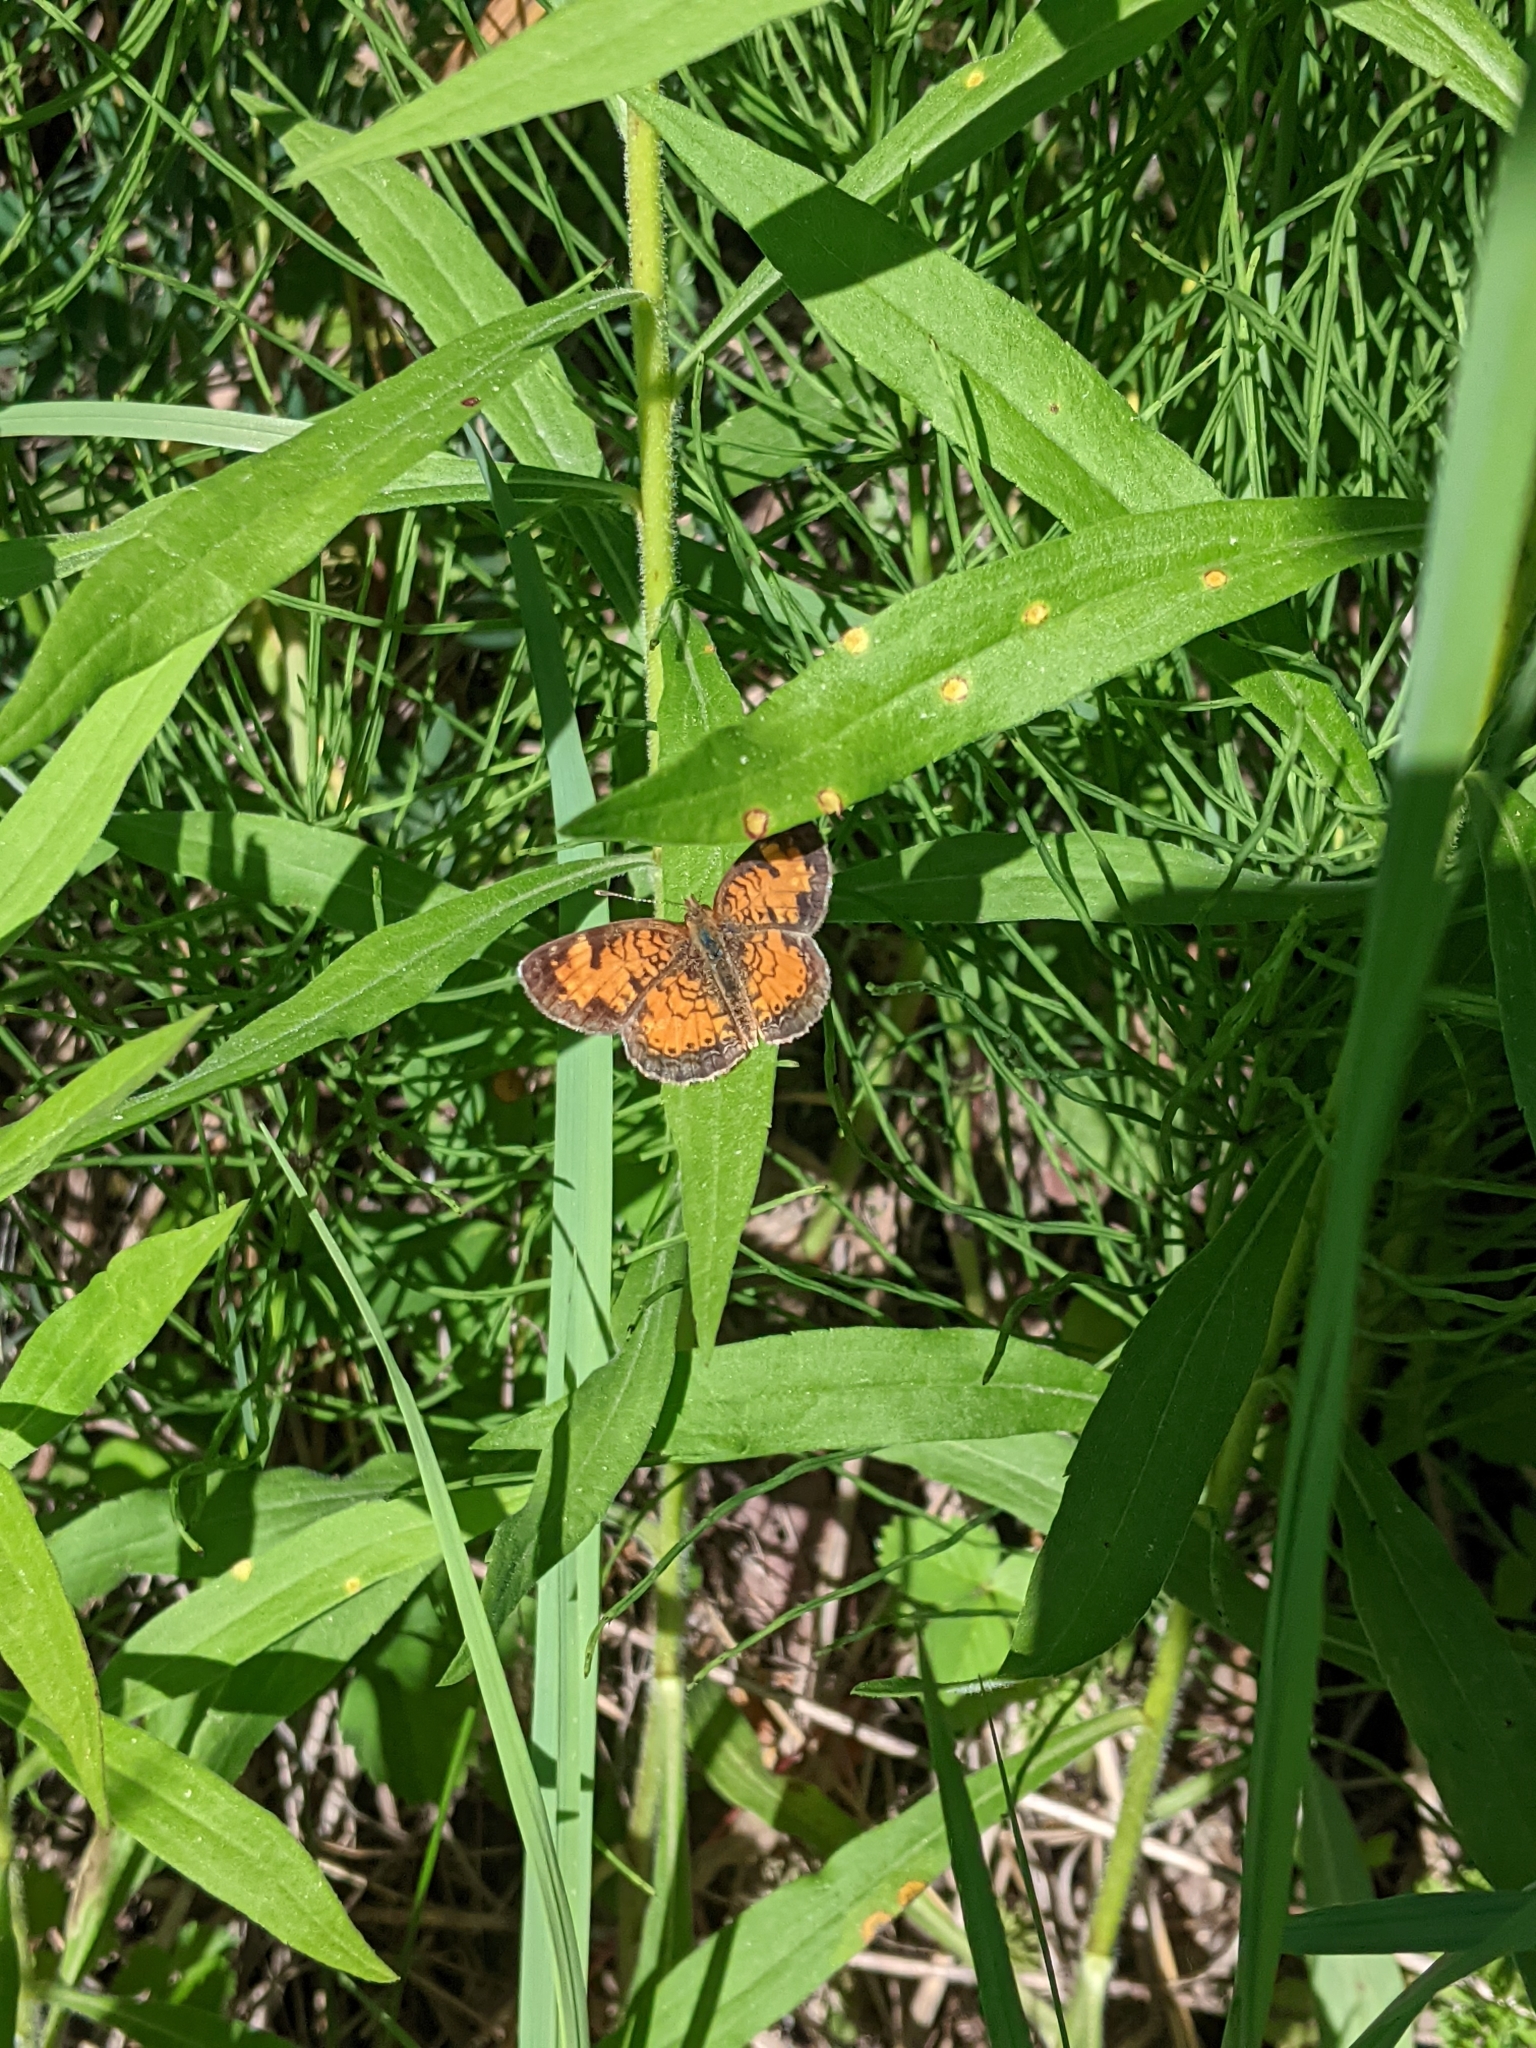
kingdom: Animalia
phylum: Arthropoda
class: Insecta
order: Lepidoptera
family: Nymphalidae
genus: Phyciodes
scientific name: Phyciodes tharos
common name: Pearl crescent
